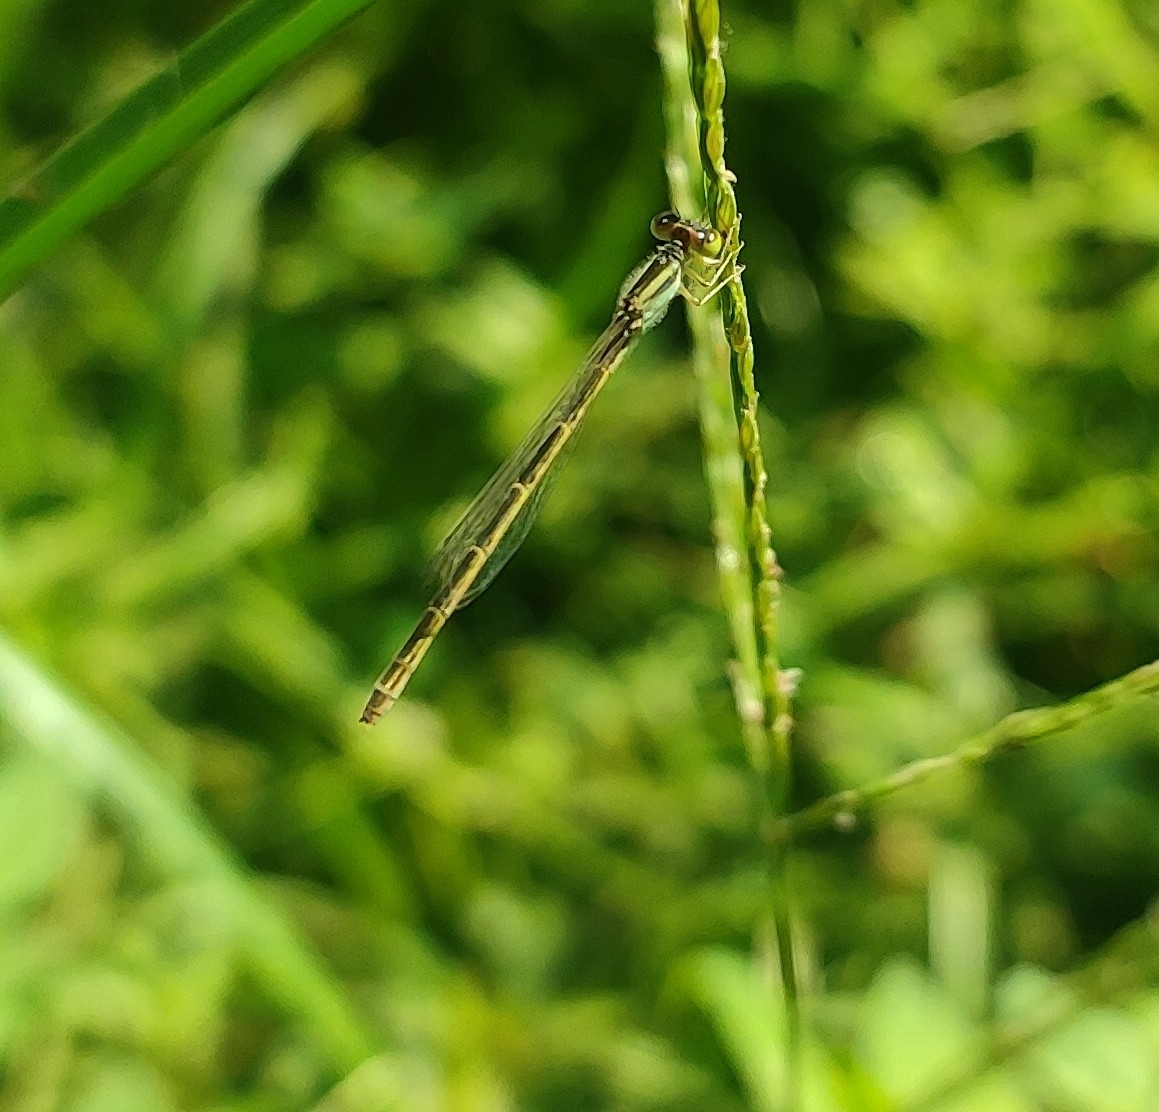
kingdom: Animalia
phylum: Arthropoda
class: Insecta
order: Odonata
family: Coenagrionidae
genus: Ischnura
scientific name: Ischnura rubilio
